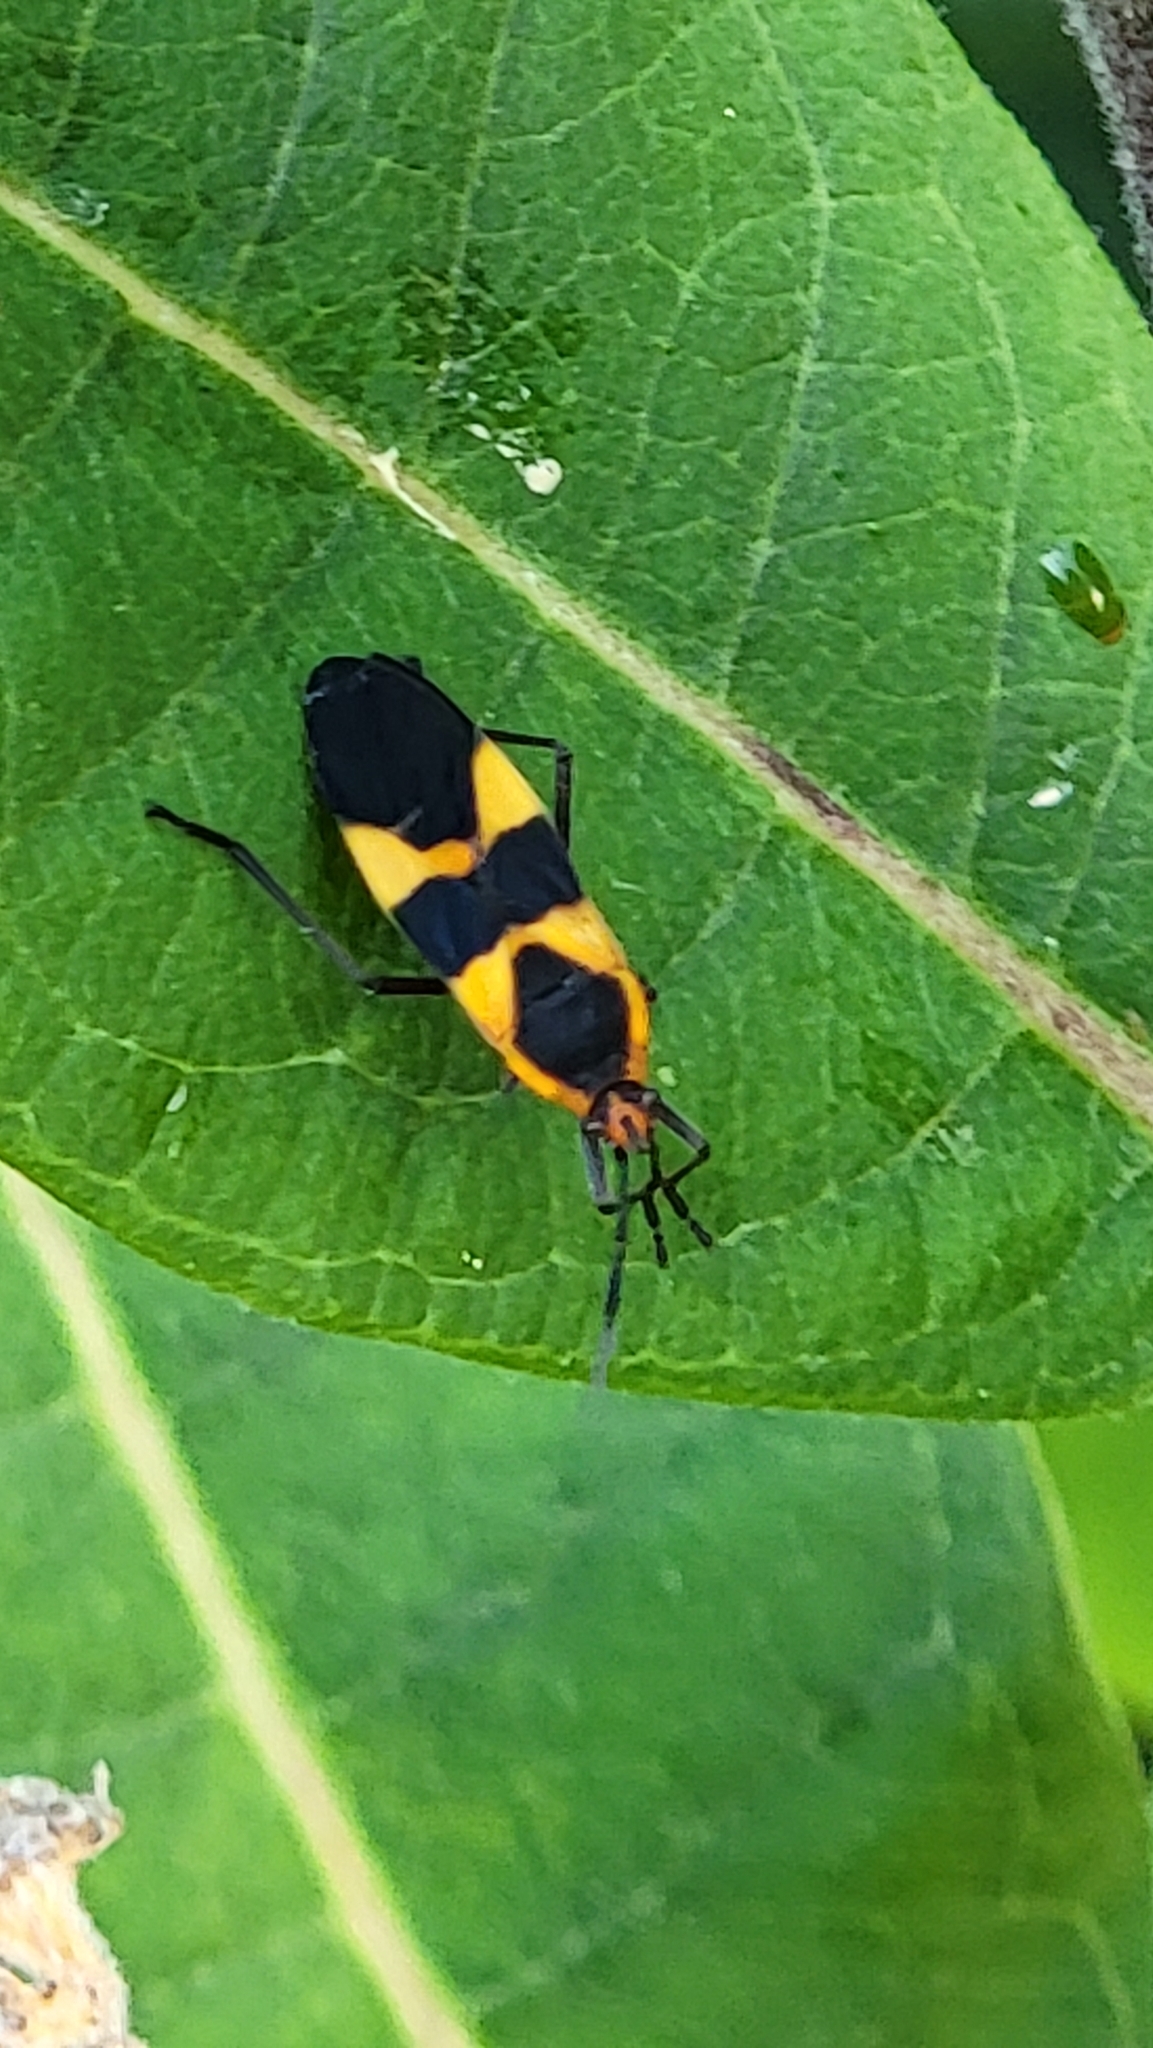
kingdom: Animalia
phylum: Arthropoda
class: Insecta
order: Hemiptera
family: Lygaeidae
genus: Oncopeltus
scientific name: Oncopeltus fasciatus
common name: Large milkweed bug
